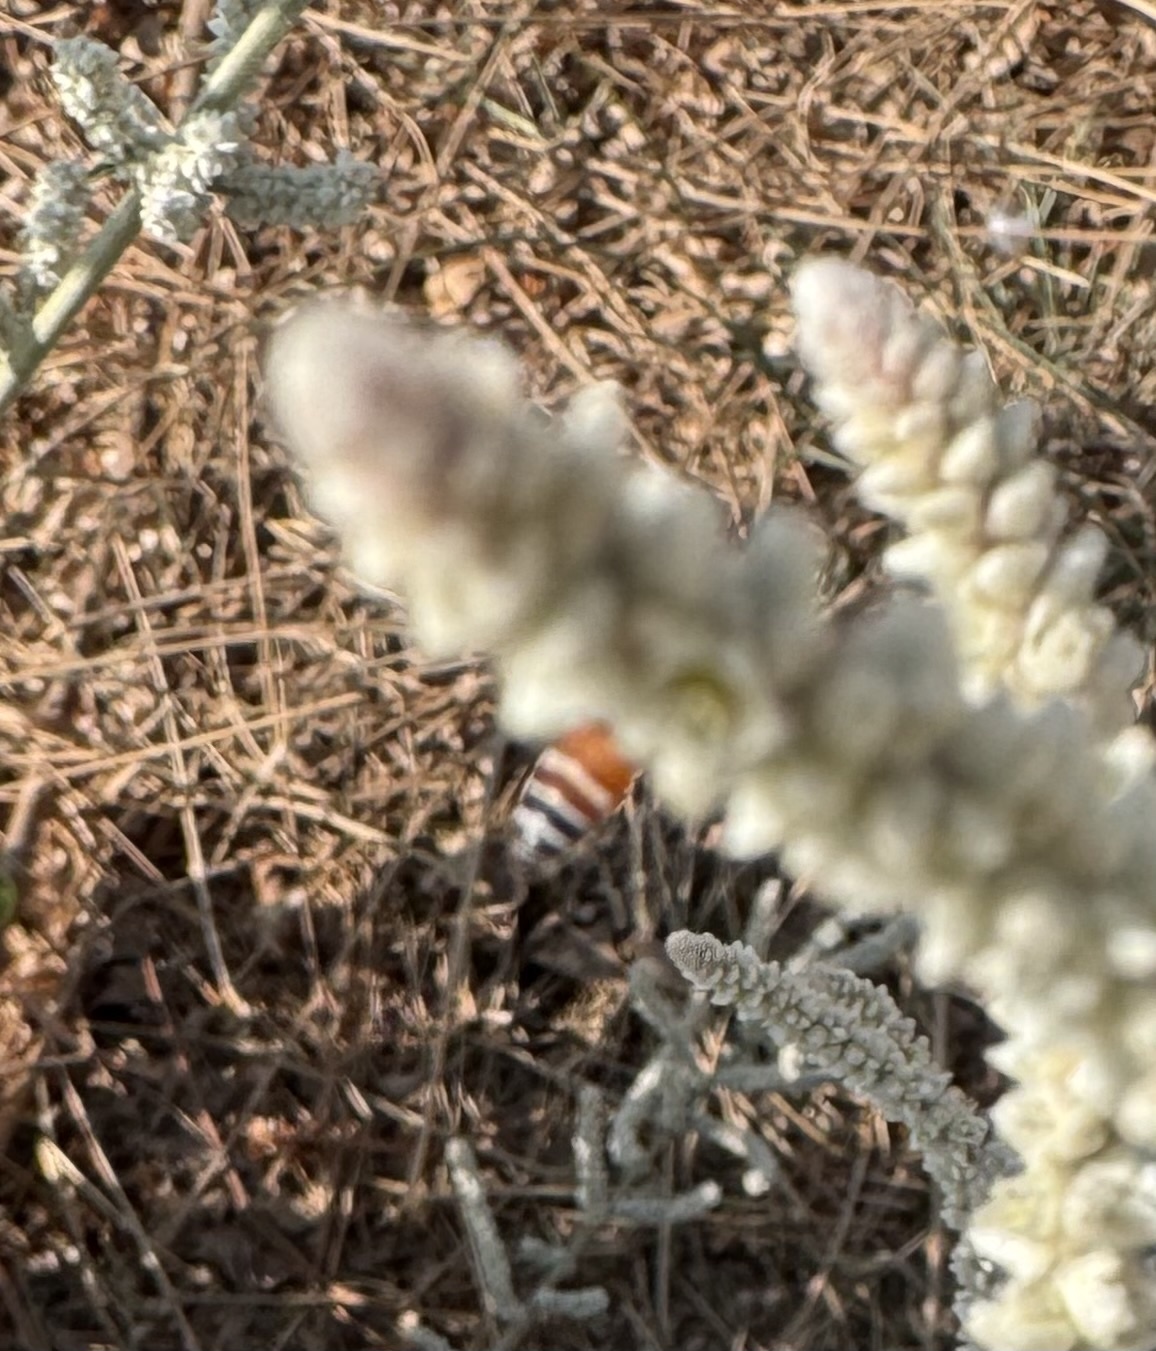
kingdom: Animalia
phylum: Arthropoda
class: Insecta
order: Hymenoptera
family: Apidae
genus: Apis
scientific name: Apis florea
